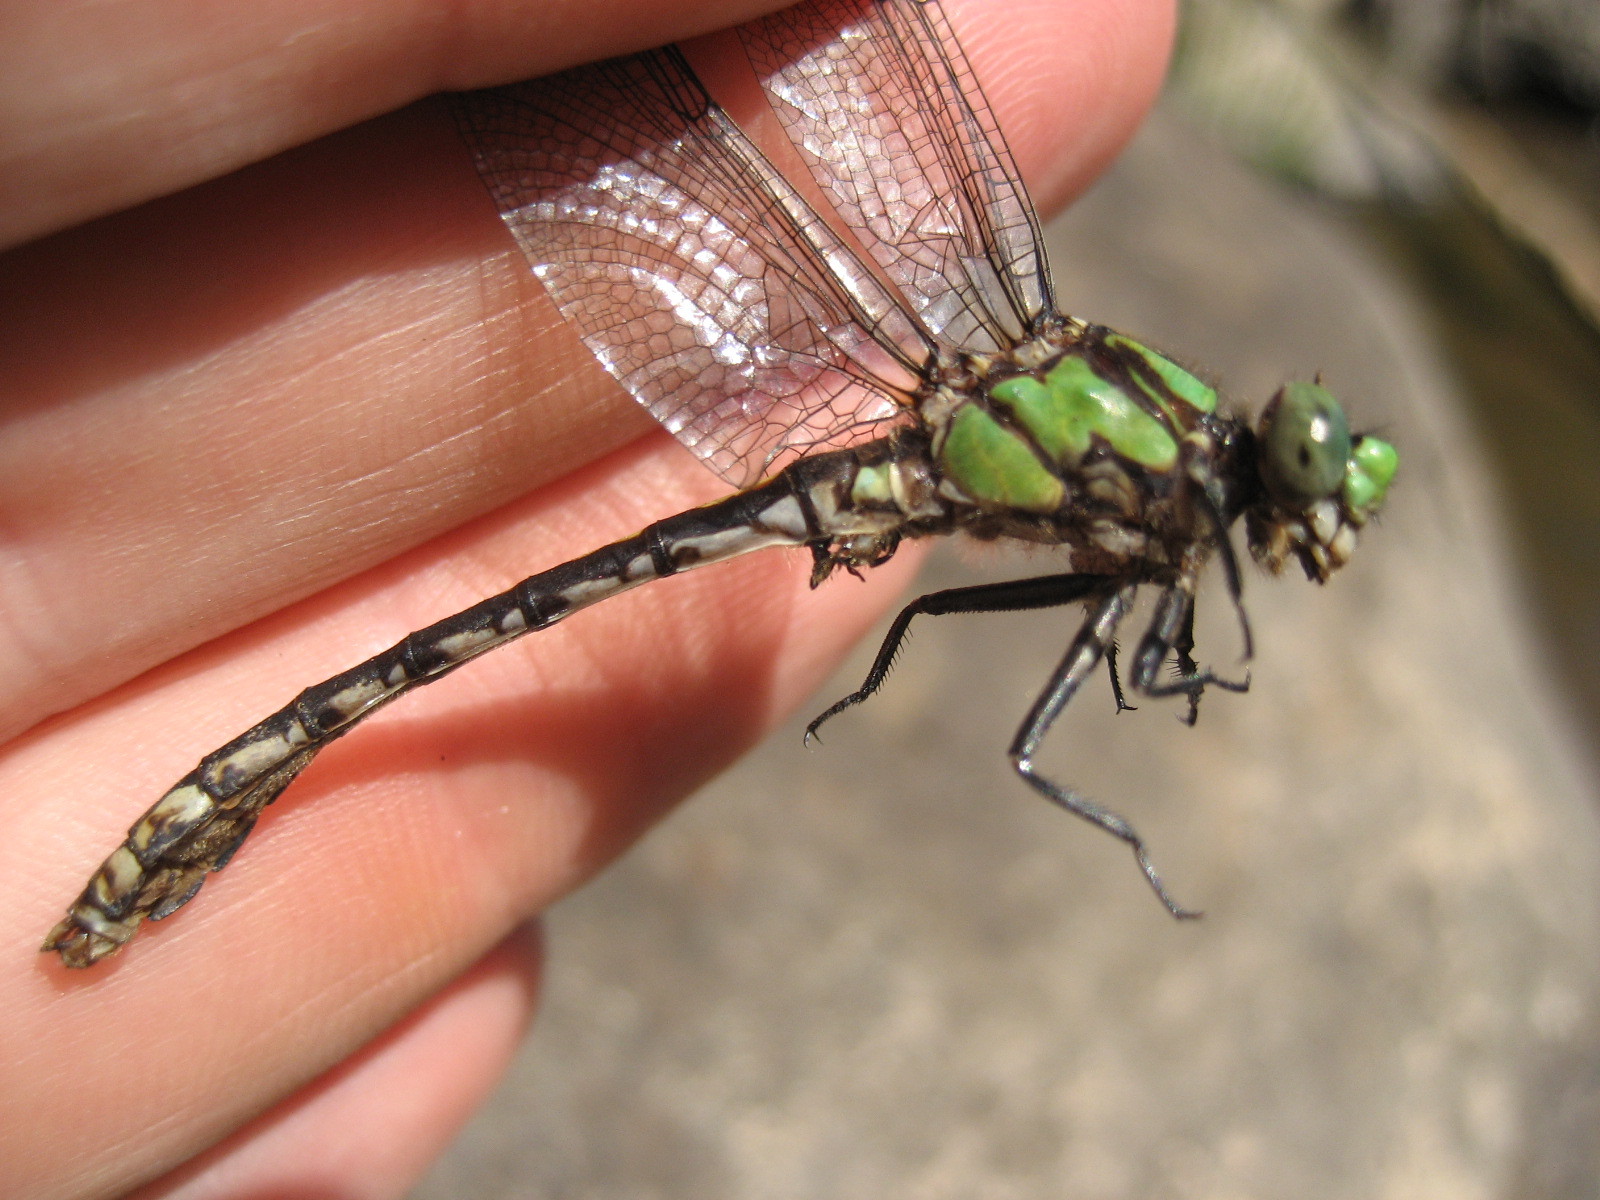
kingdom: Animalia
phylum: Arthropoda
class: Insecta
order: Odonata
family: Gomphidae
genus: Ophiogomphus
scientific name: Ophiogomphus carolus
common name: Riffle snaketail
